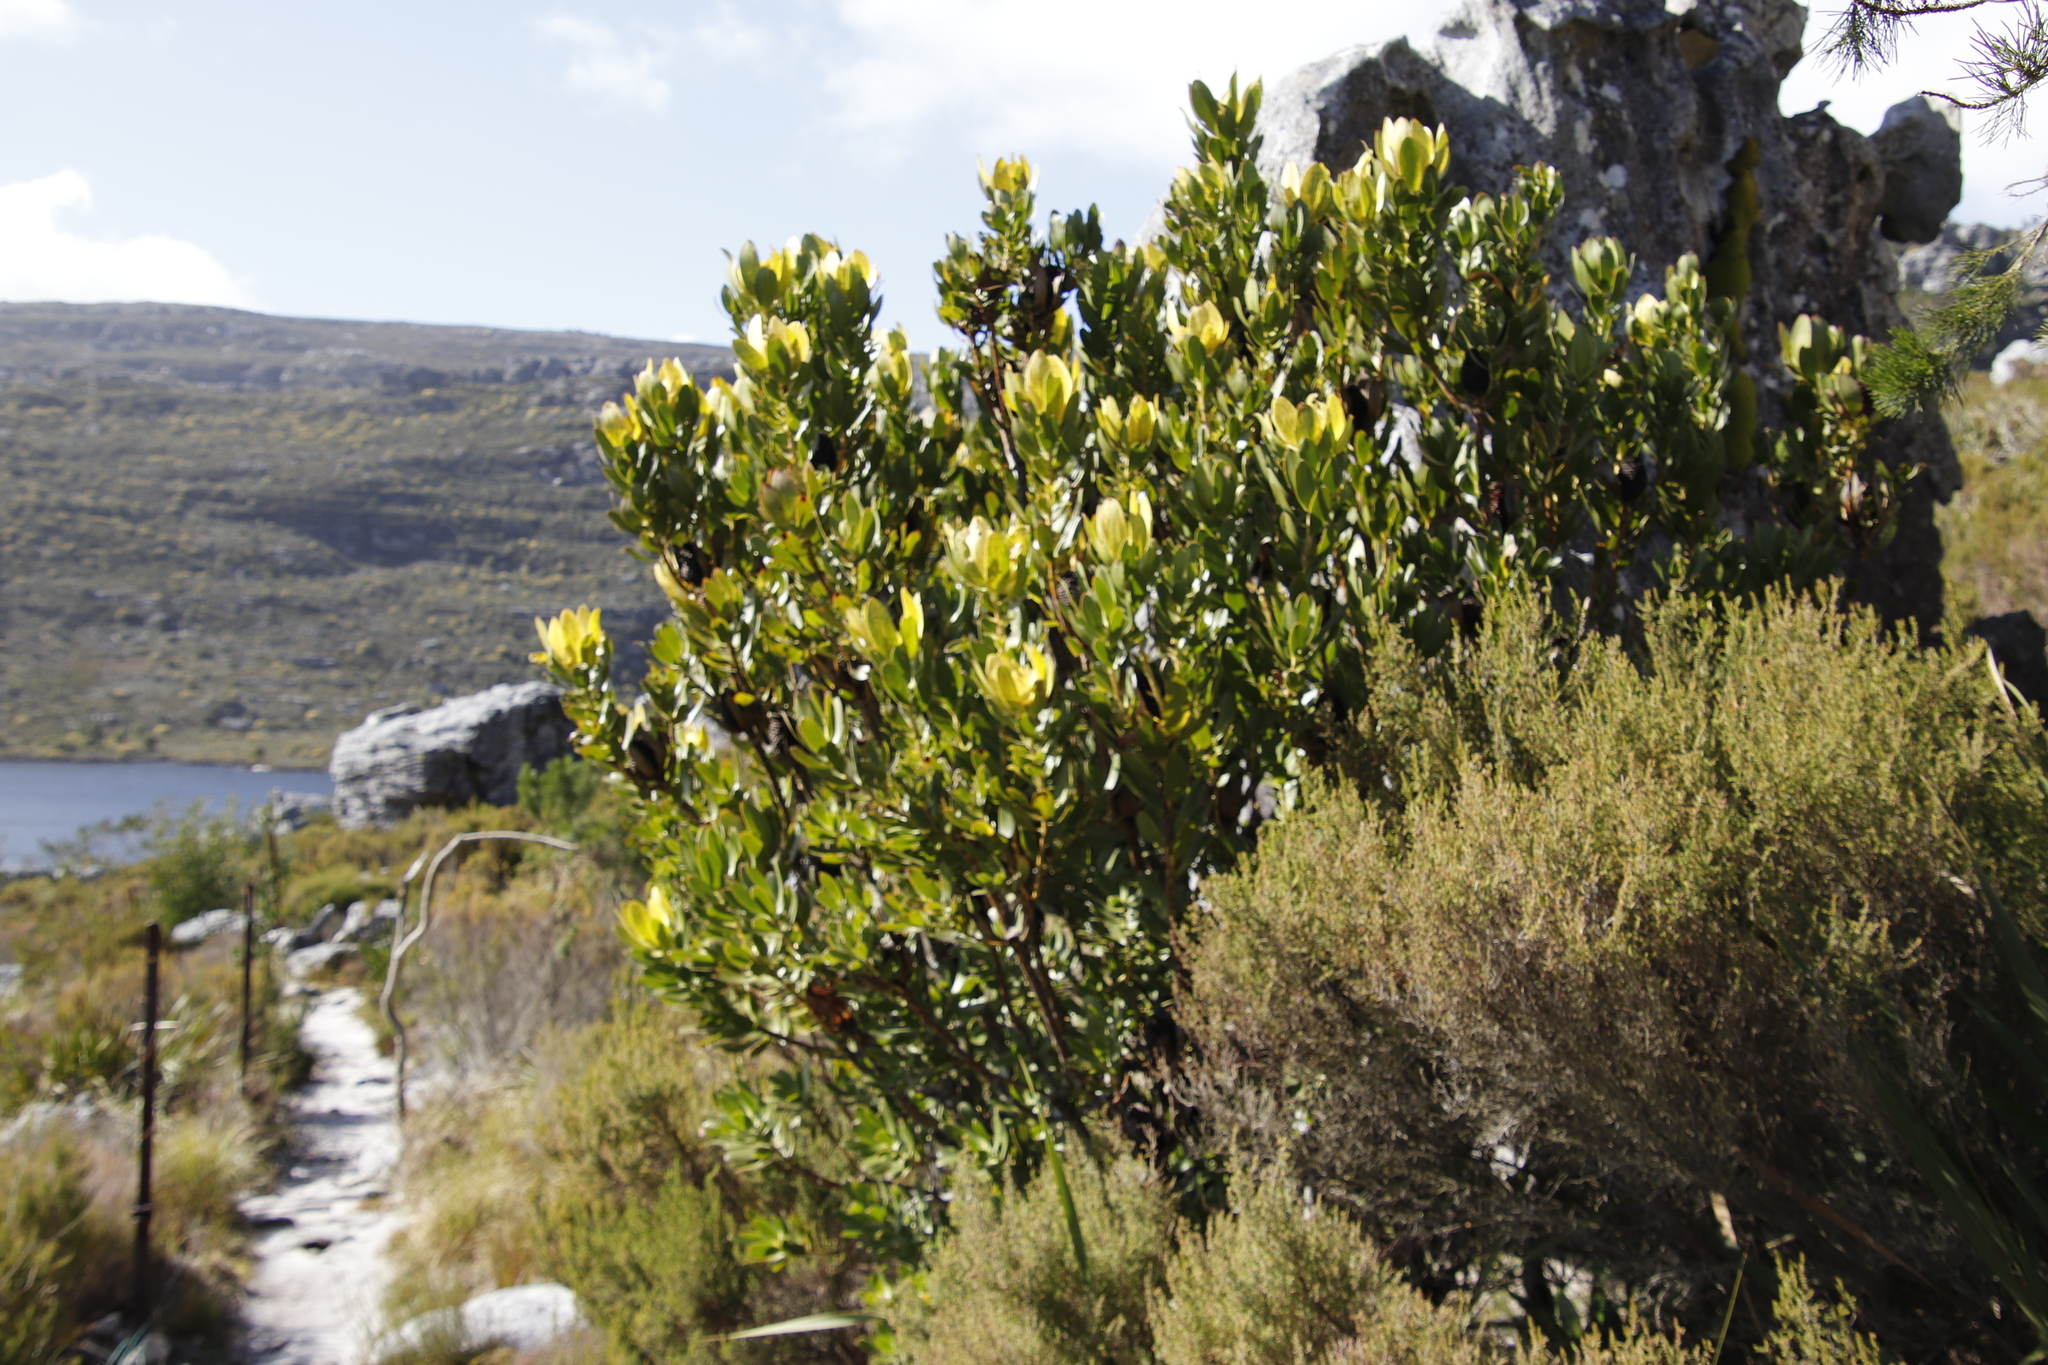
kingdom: Plantae
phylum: Tracheophyta
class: Magnoliopsida
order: Proteales
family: Proteaceae
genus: Leucadendron
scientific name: Leucadendron strobilinum
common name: Mountain rose
